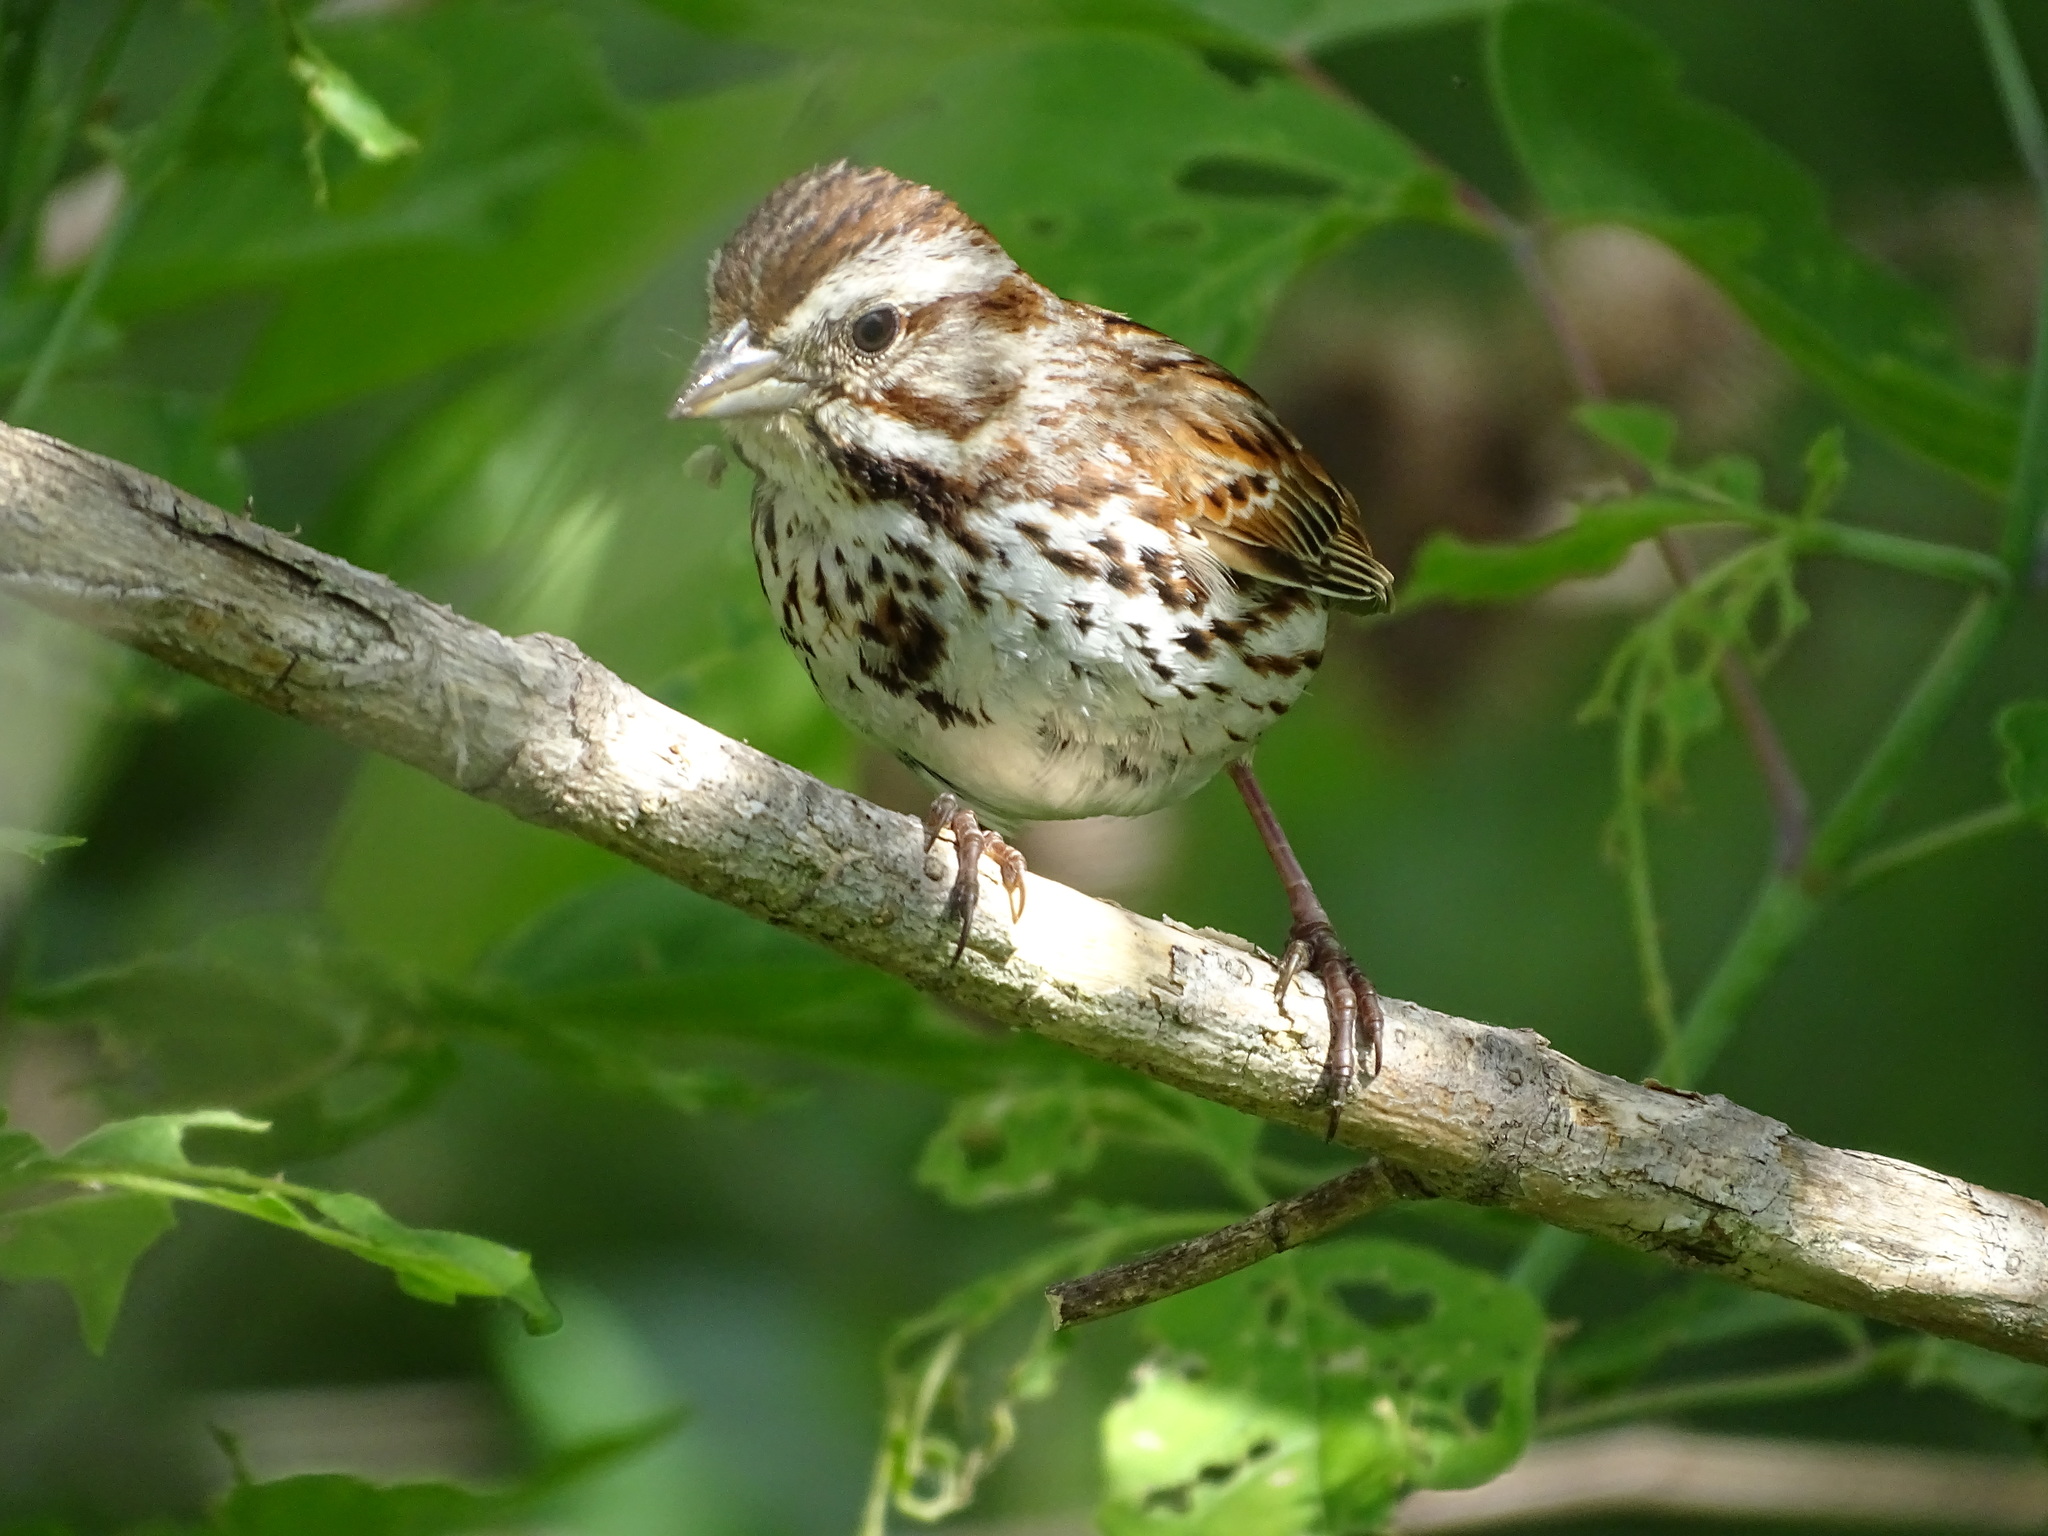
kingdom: Animalia
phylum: Chordata
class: Aves
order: Passeriformes
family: Passerellidae
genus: Melospiza
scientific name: Melospiza melodia
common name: Song sparrow
